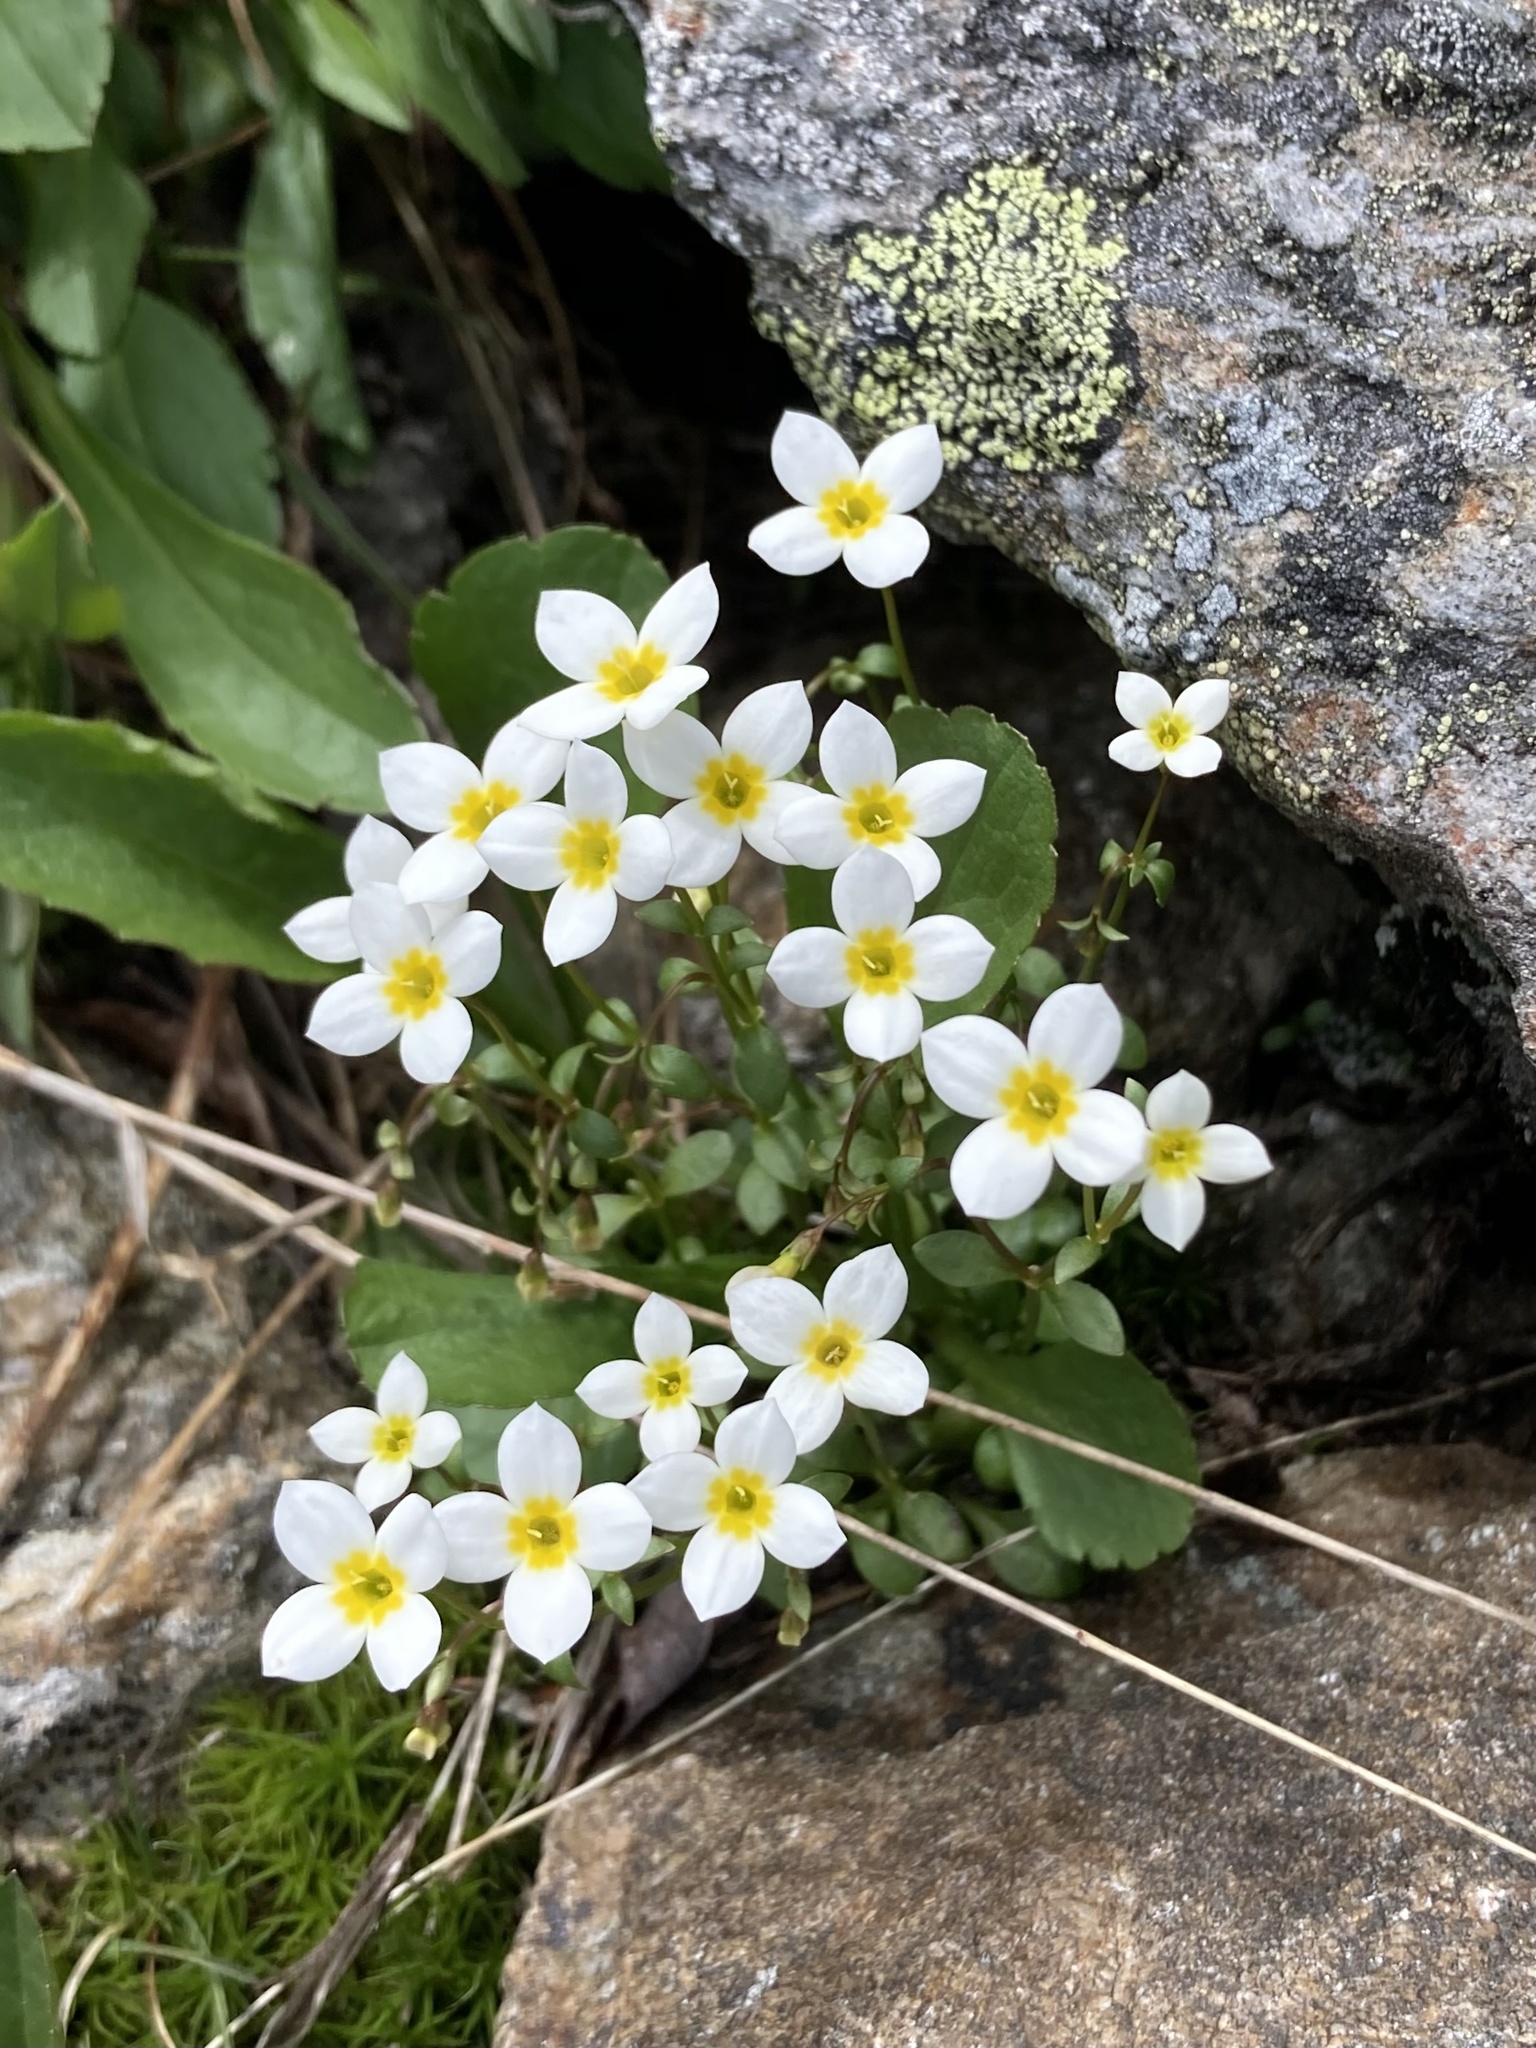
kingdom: Plantae
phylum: Tracheophyta
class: Magnoliopsida
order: Gentianales
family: Rubiaceae
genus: Houstonia
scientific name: Houstonia caerulea
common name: Bluets
